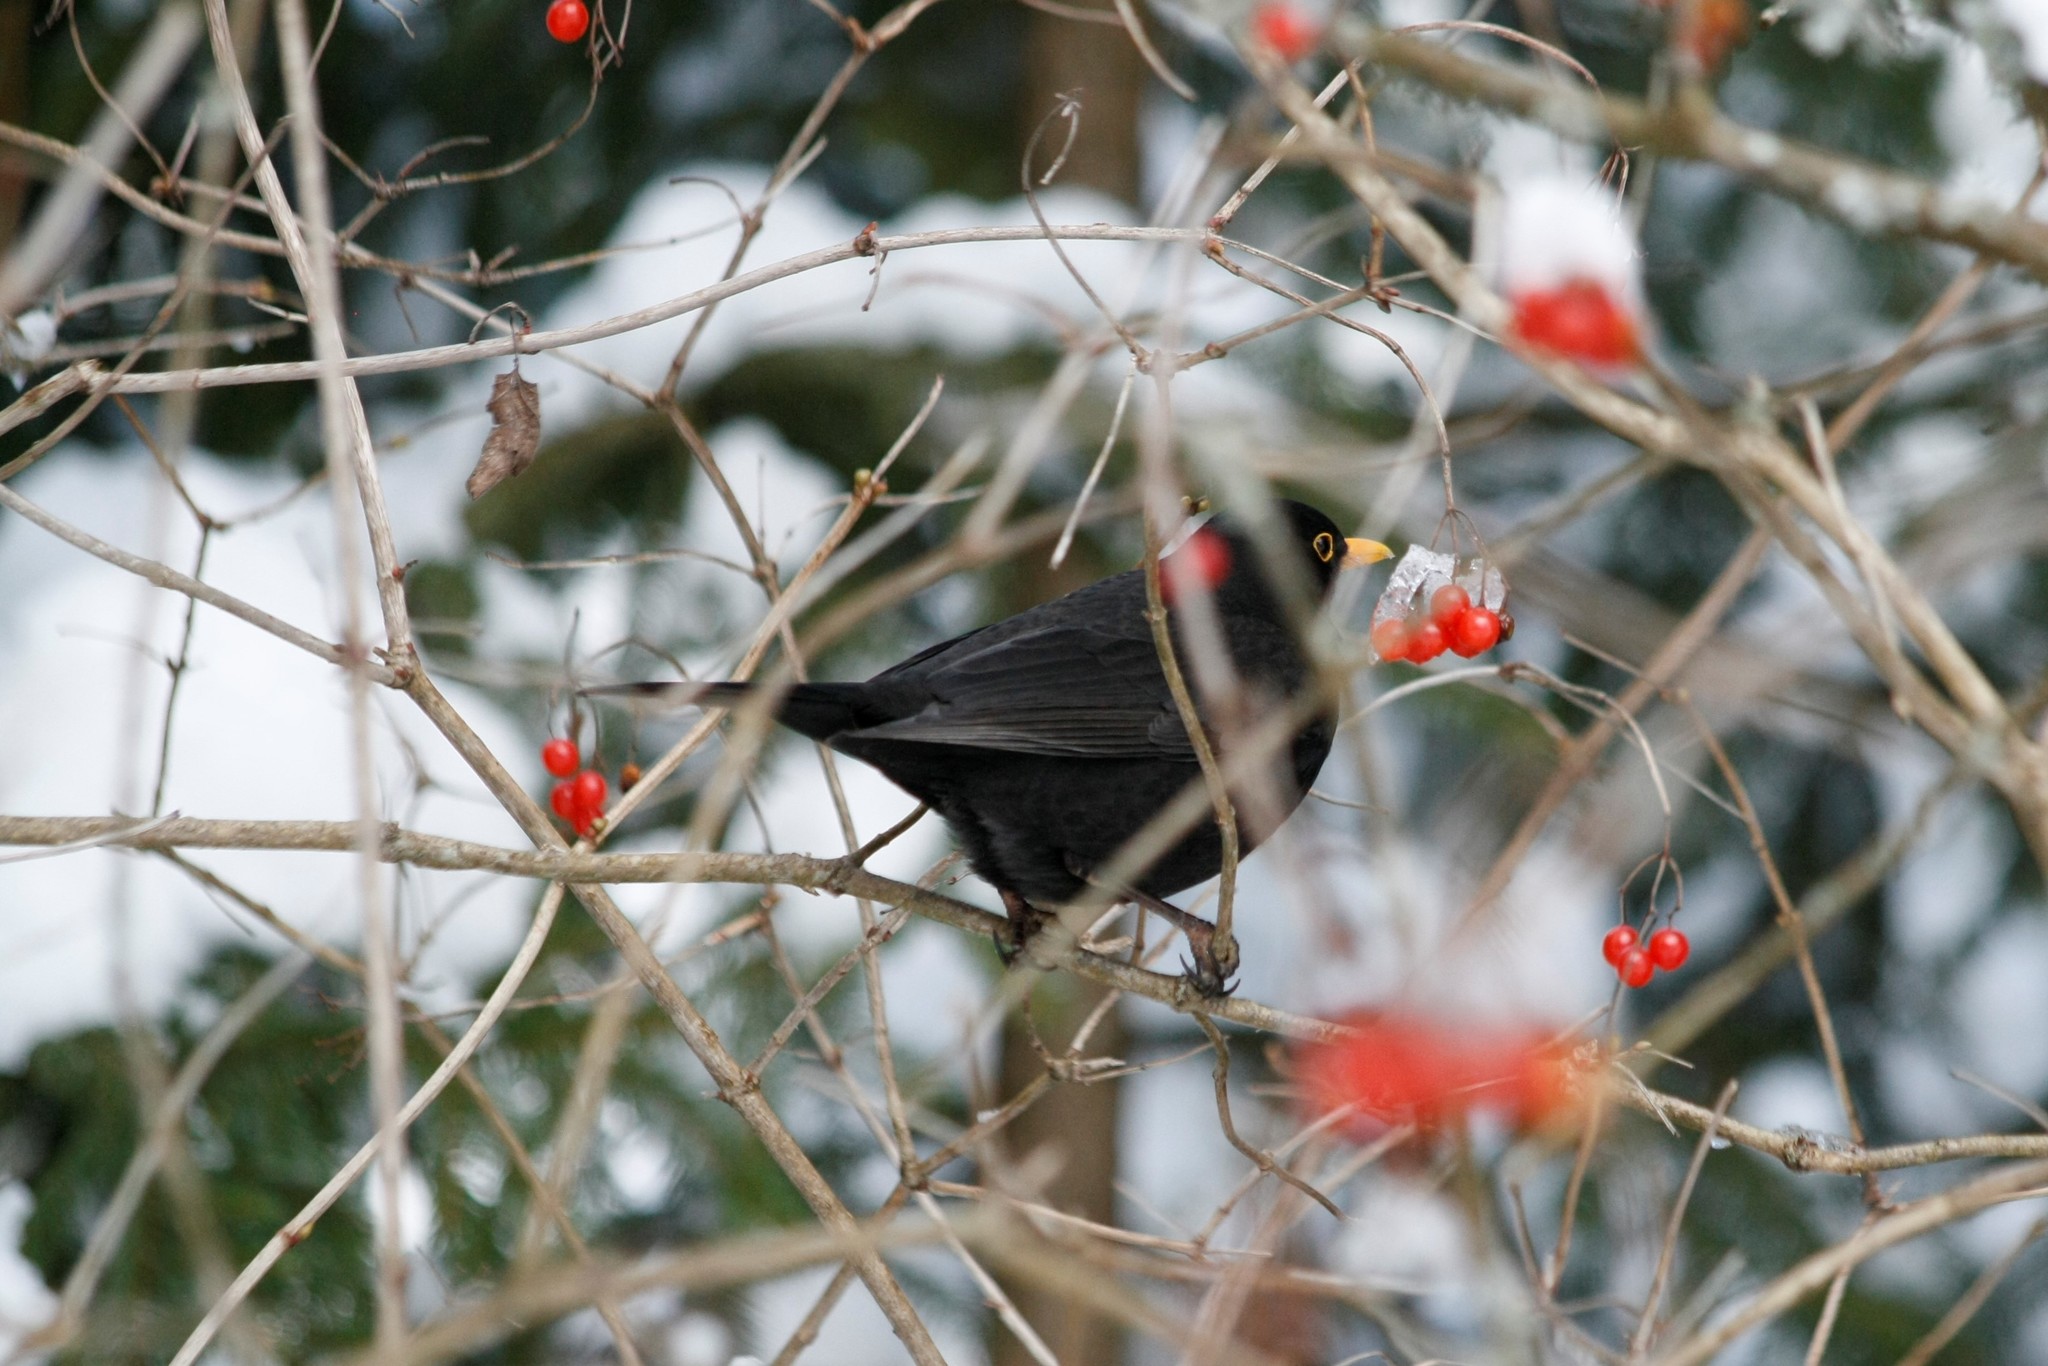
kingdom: Animalia
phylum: Chordata
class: Aves
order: Passeriformes
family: Turdidae
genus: Turdus
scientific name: Turdus merula
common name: Common blackbird
